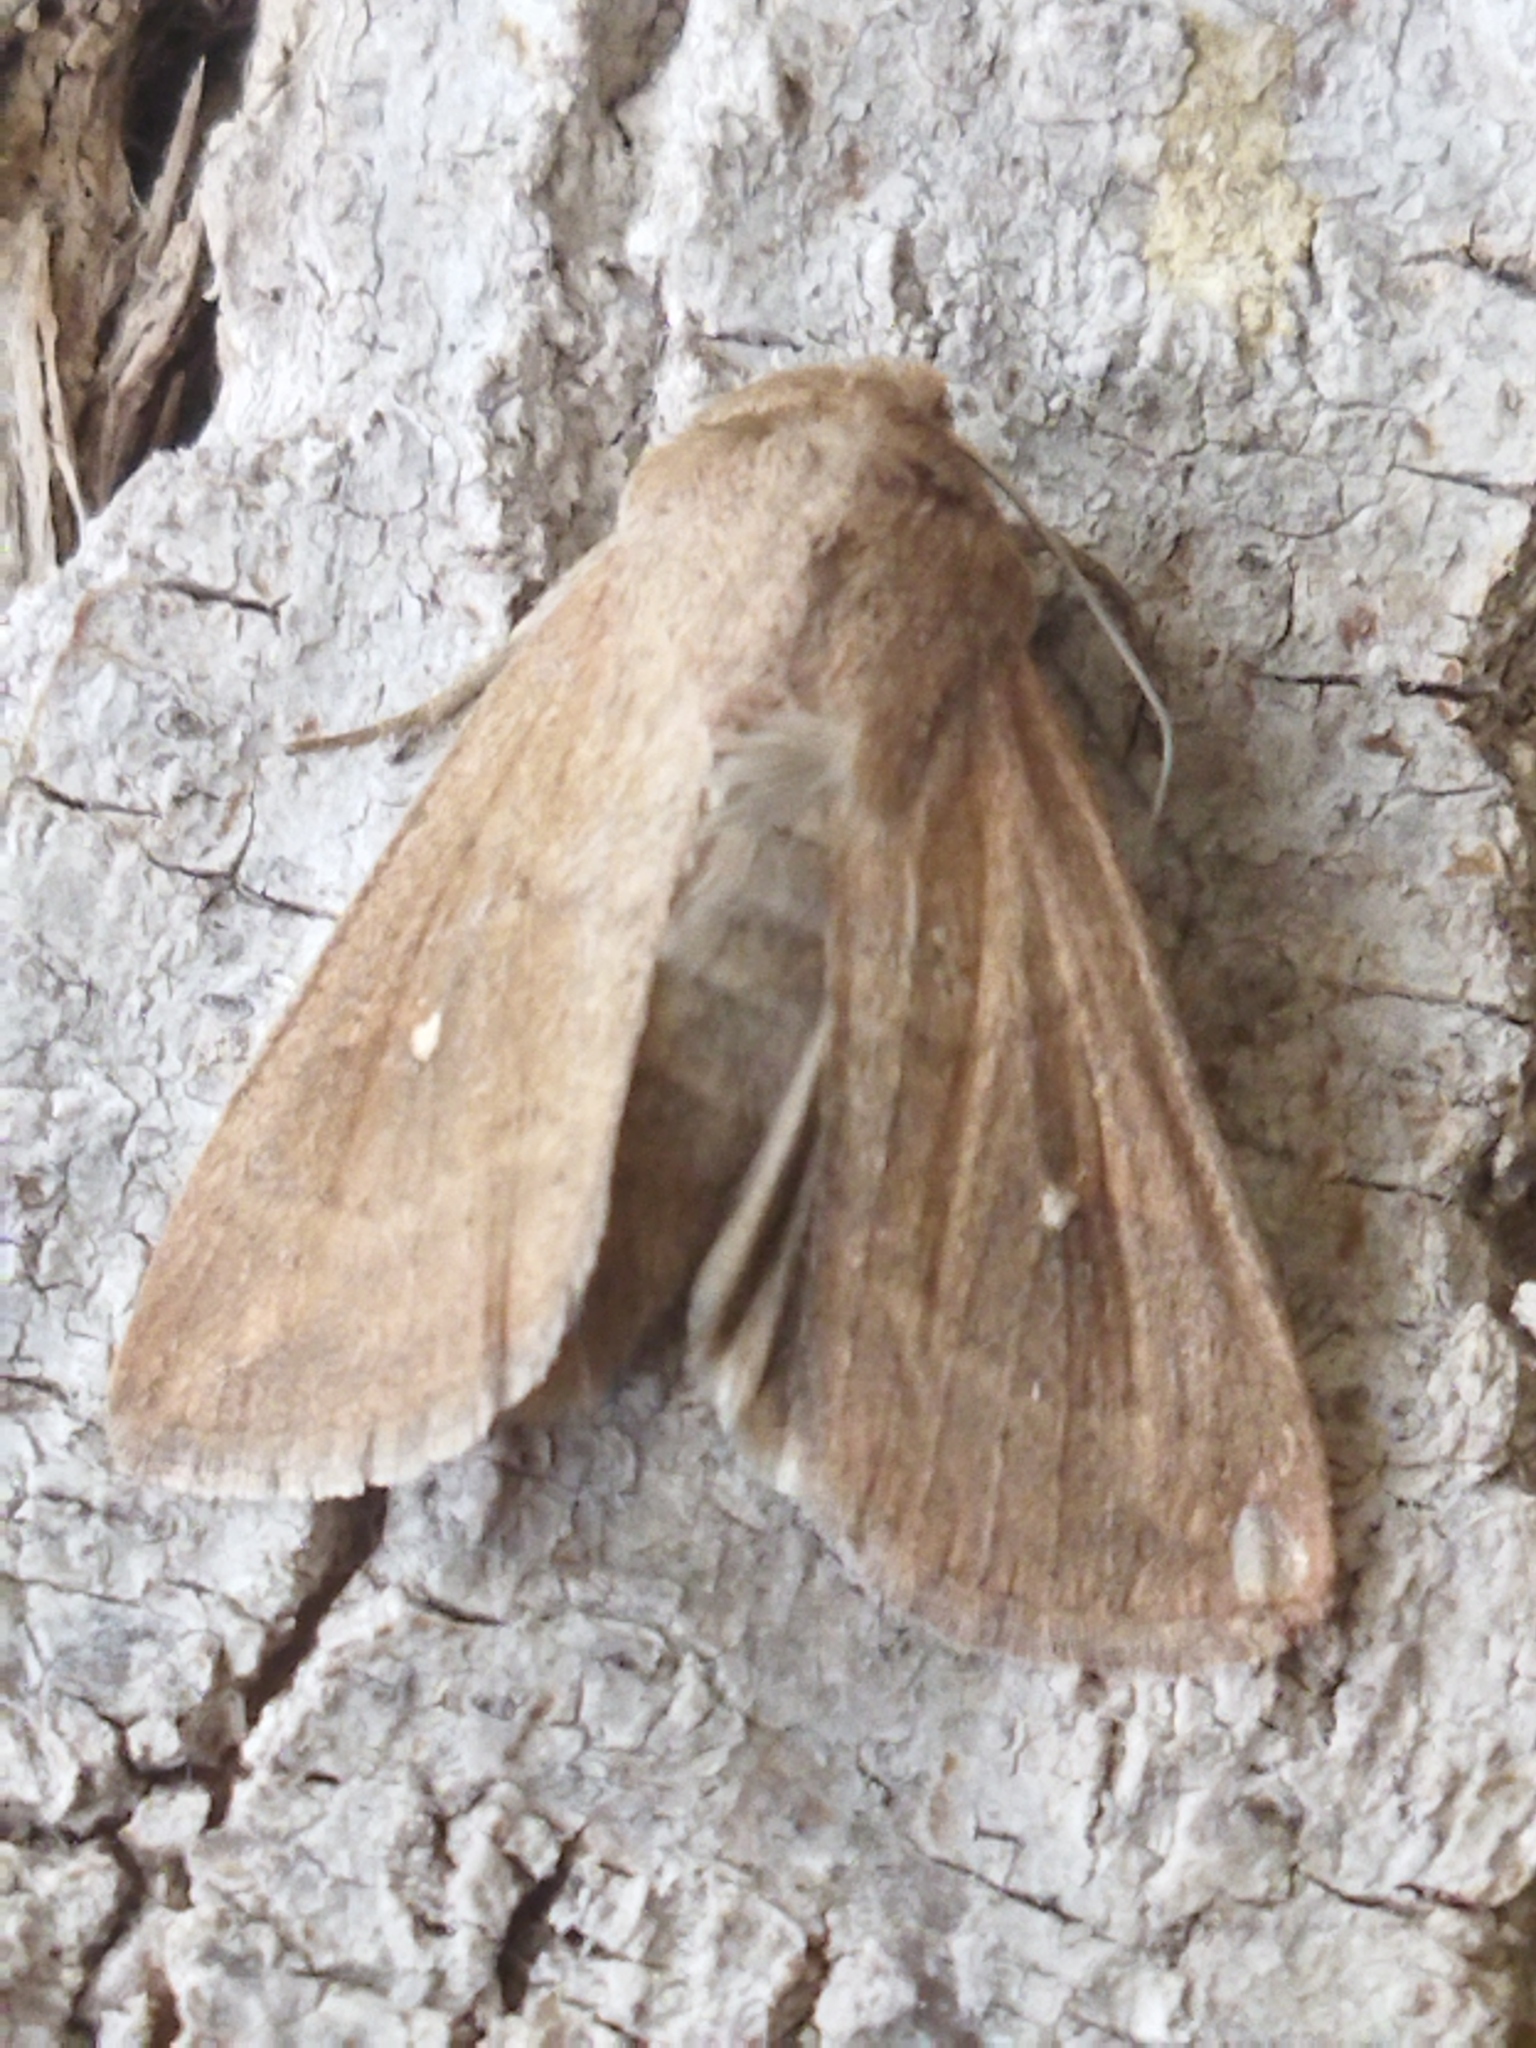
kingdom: Animalia
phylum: Arthropoda
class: Insecta
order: Lepidoptera
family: Noctuidae
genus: Mythimna
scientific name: Mythimna albipuncta
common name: White-point
